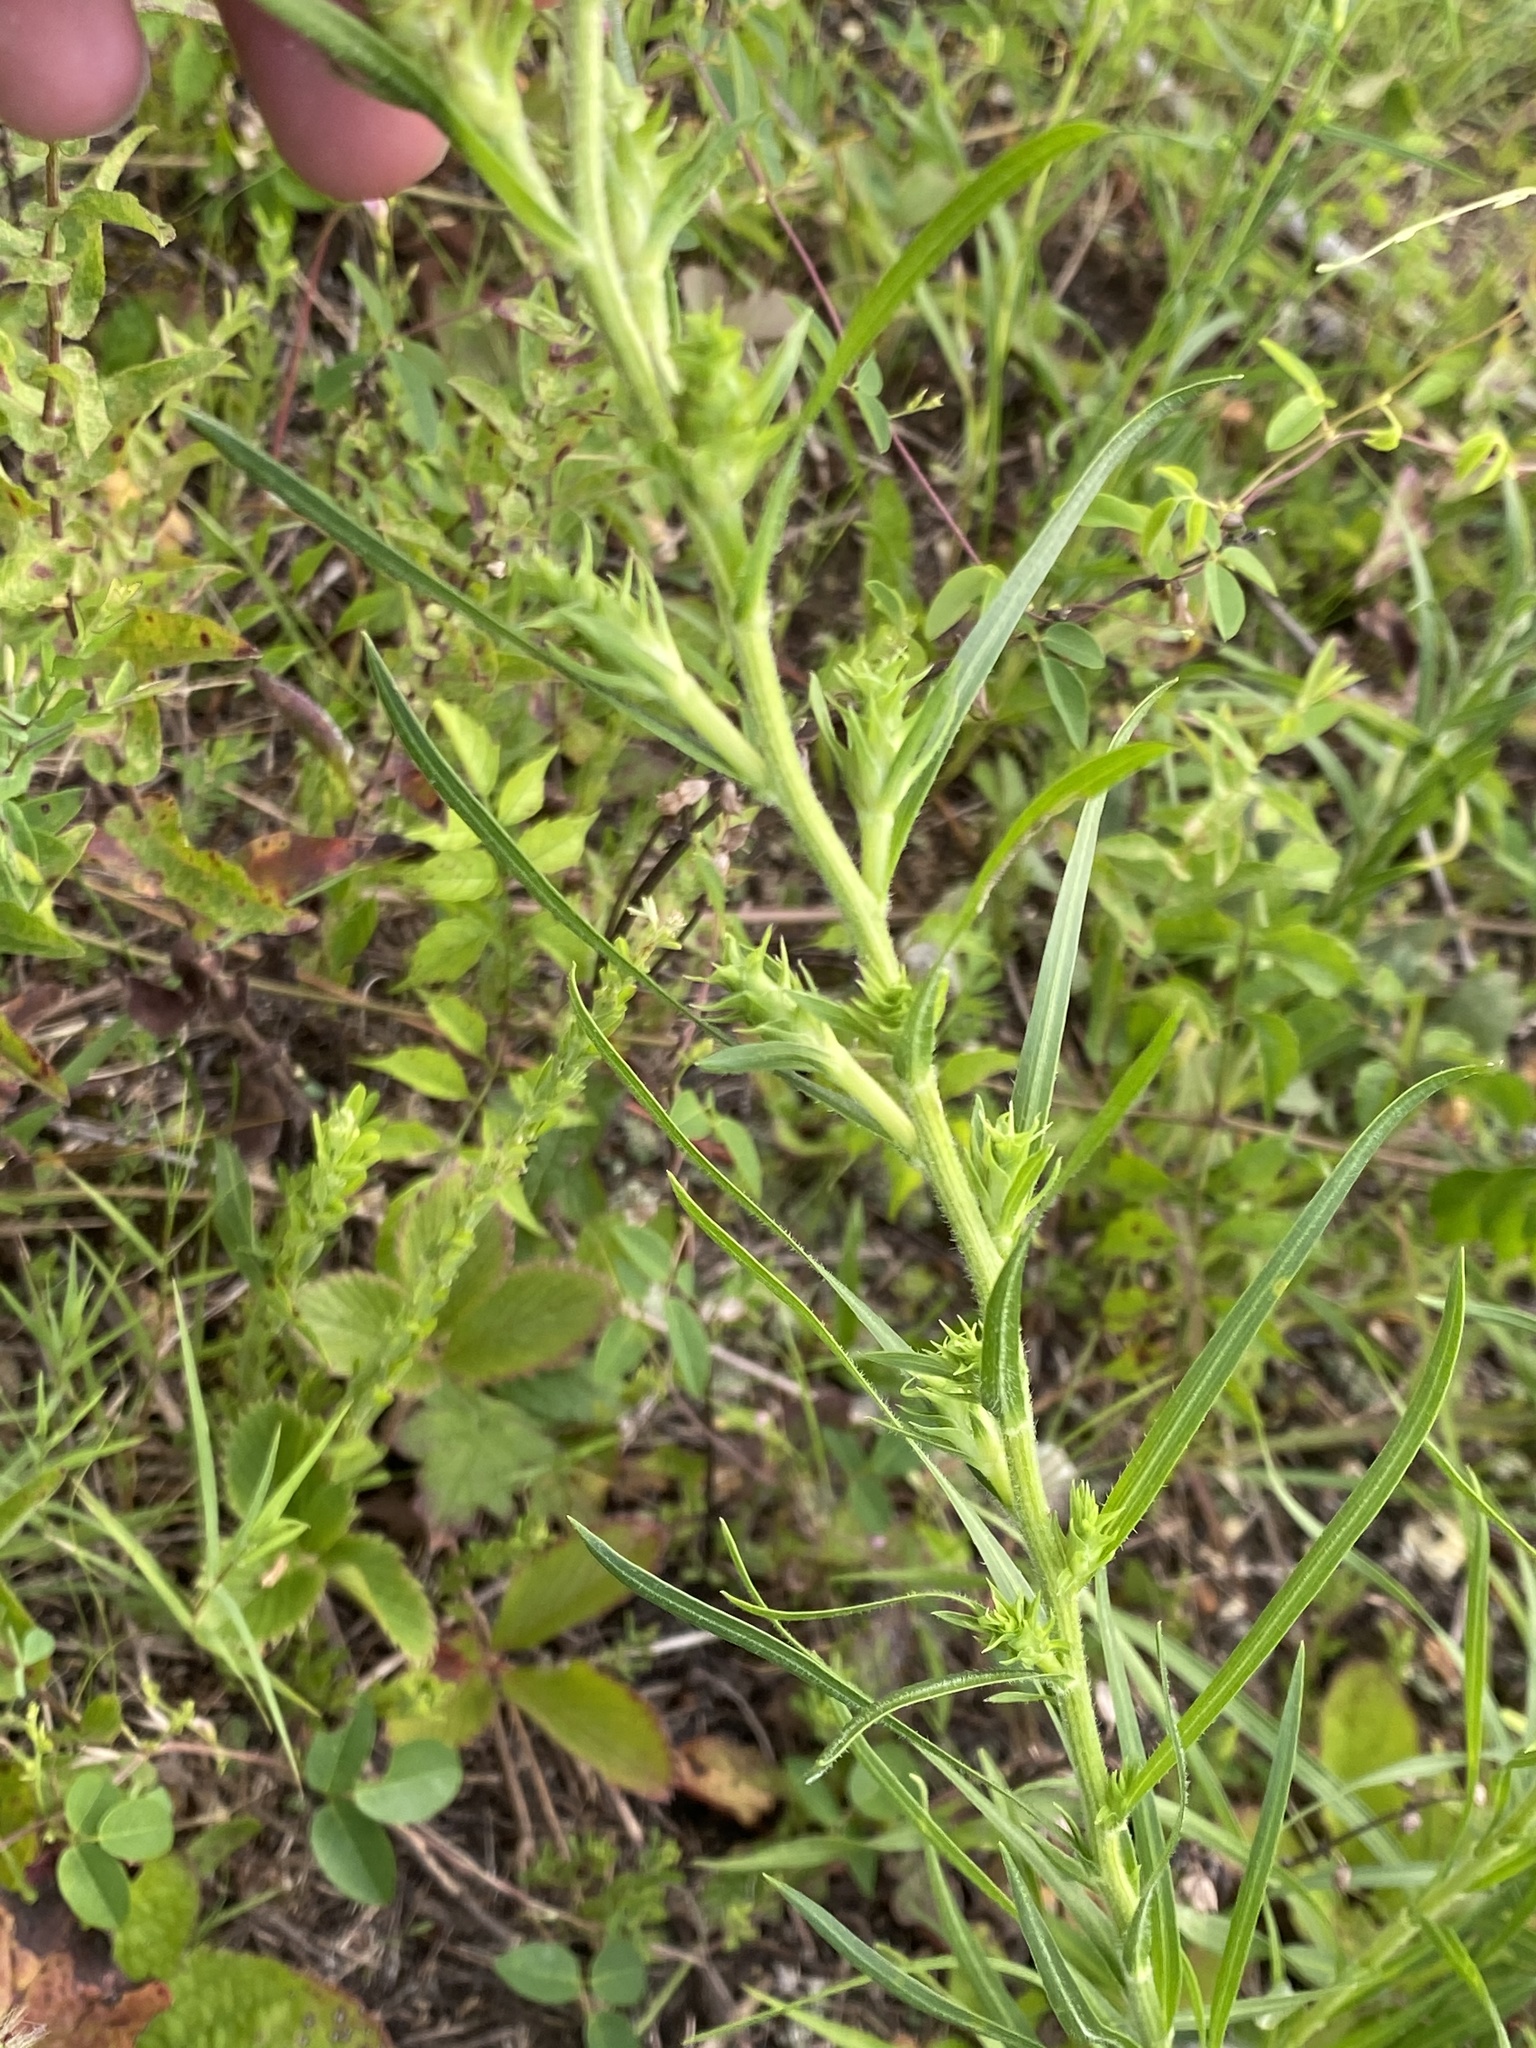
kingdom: Plantae
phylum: Tracheophyta
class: Magnoliopsida
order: Asterales
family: Asteraceae
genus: Liatris
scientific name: Liatris squarrosa
